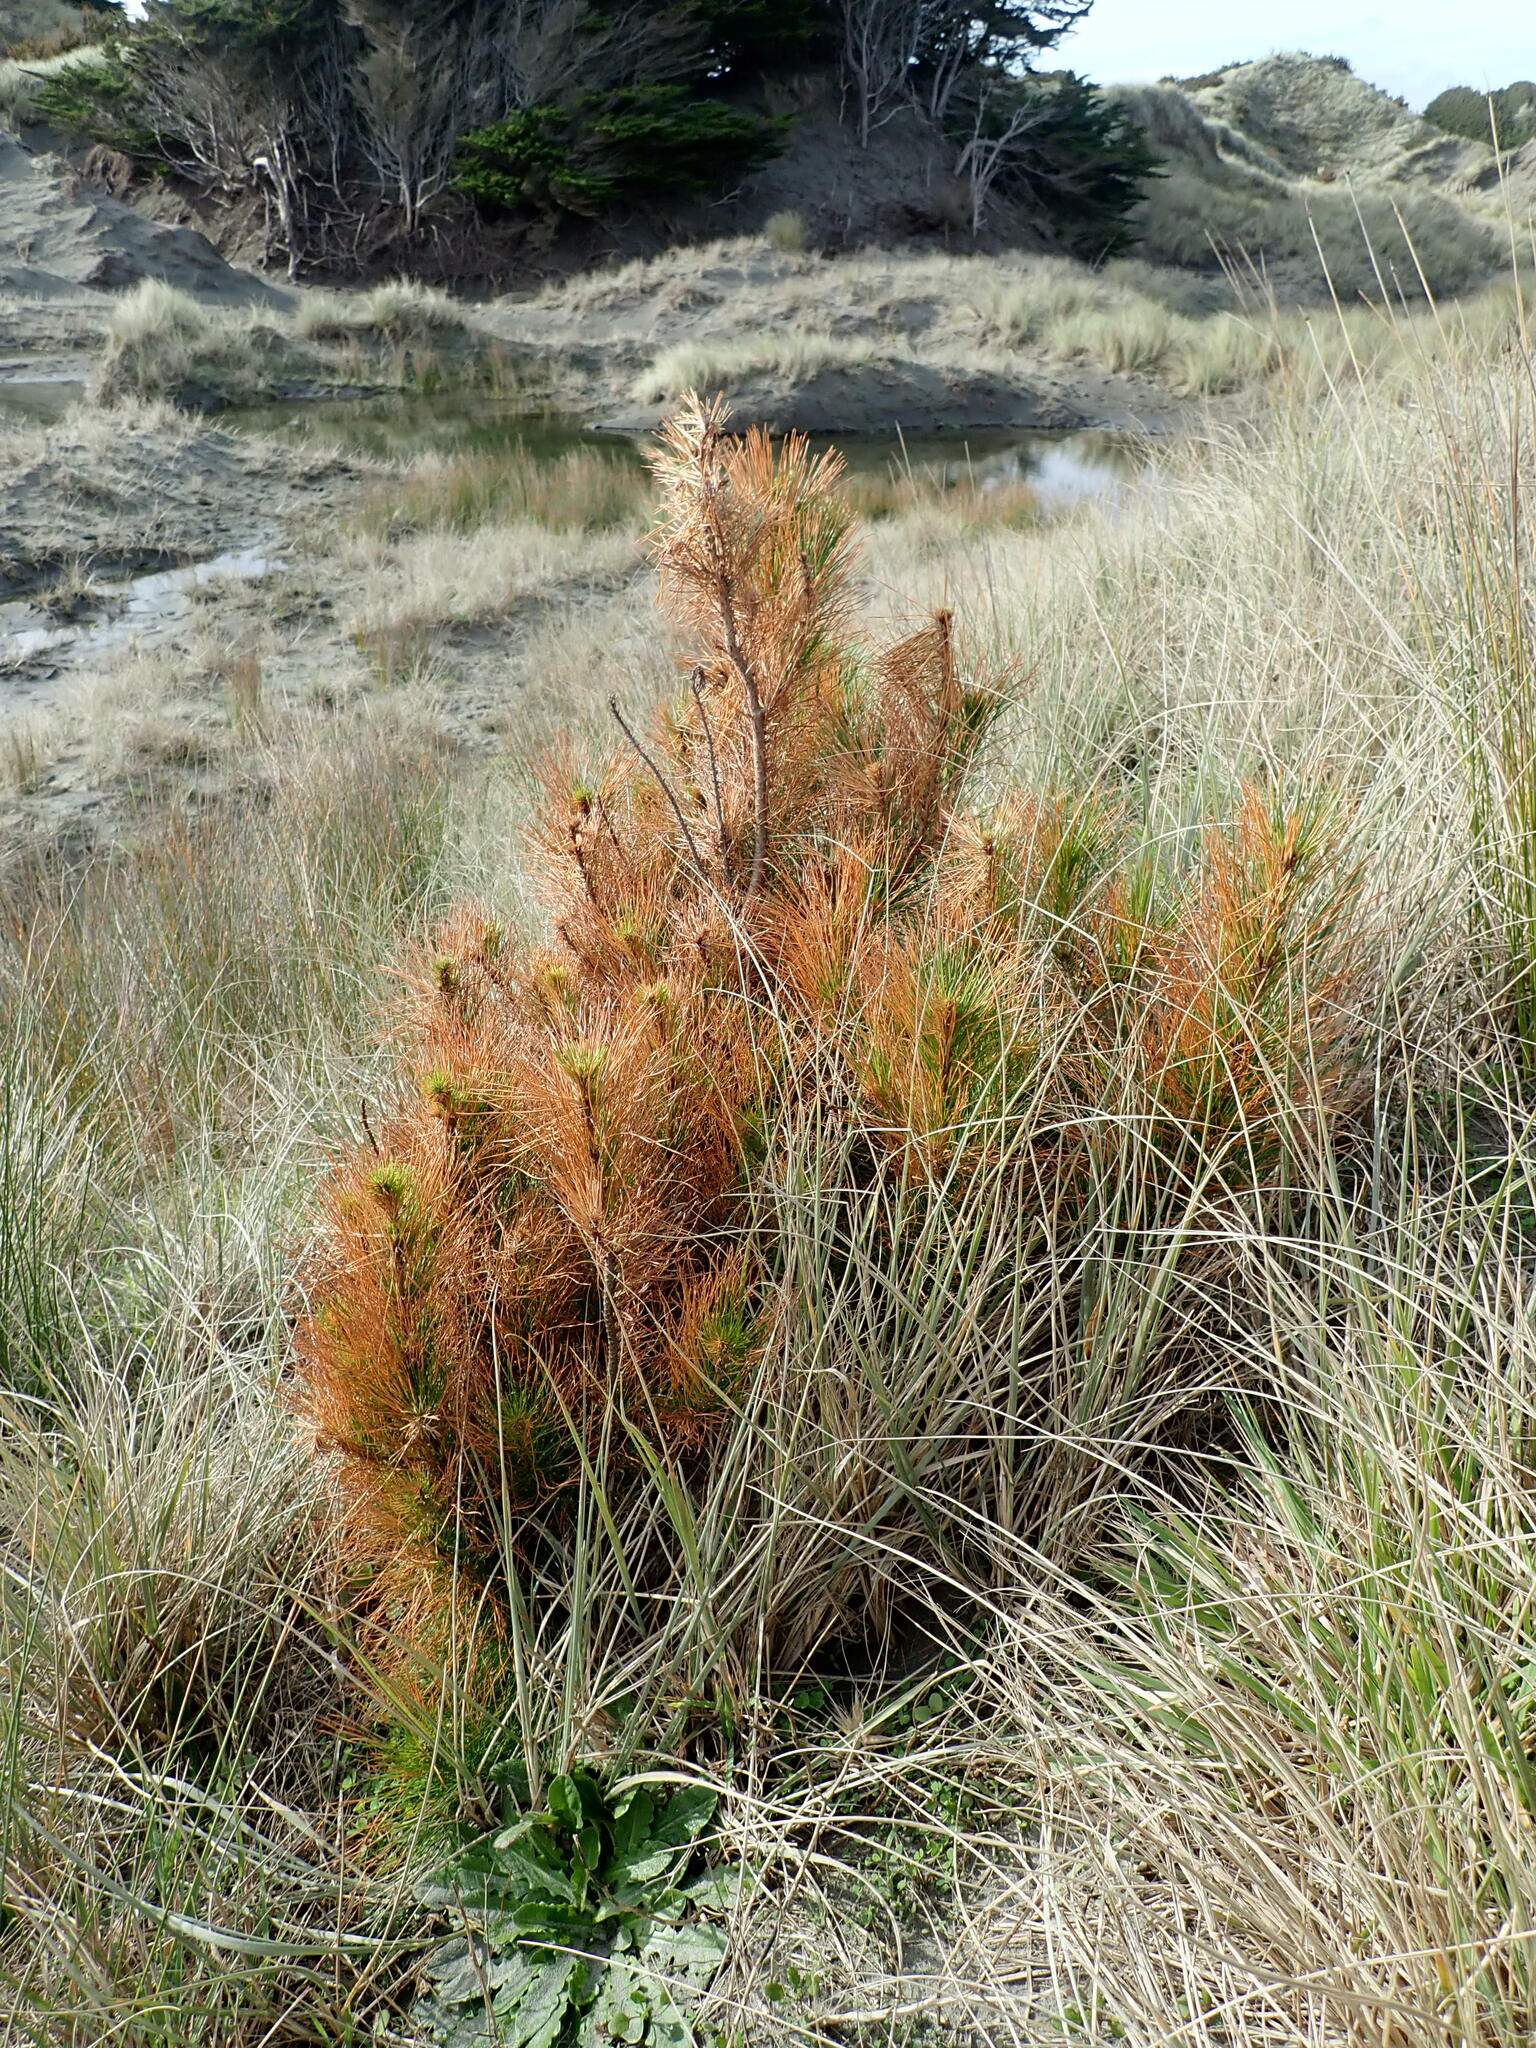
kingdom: Plantae
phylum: Tracheophyta
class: Pinopsida
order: Pinales
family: Pinaceae
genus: Pinus
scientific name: Pinus radiata
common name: Monterey pine
